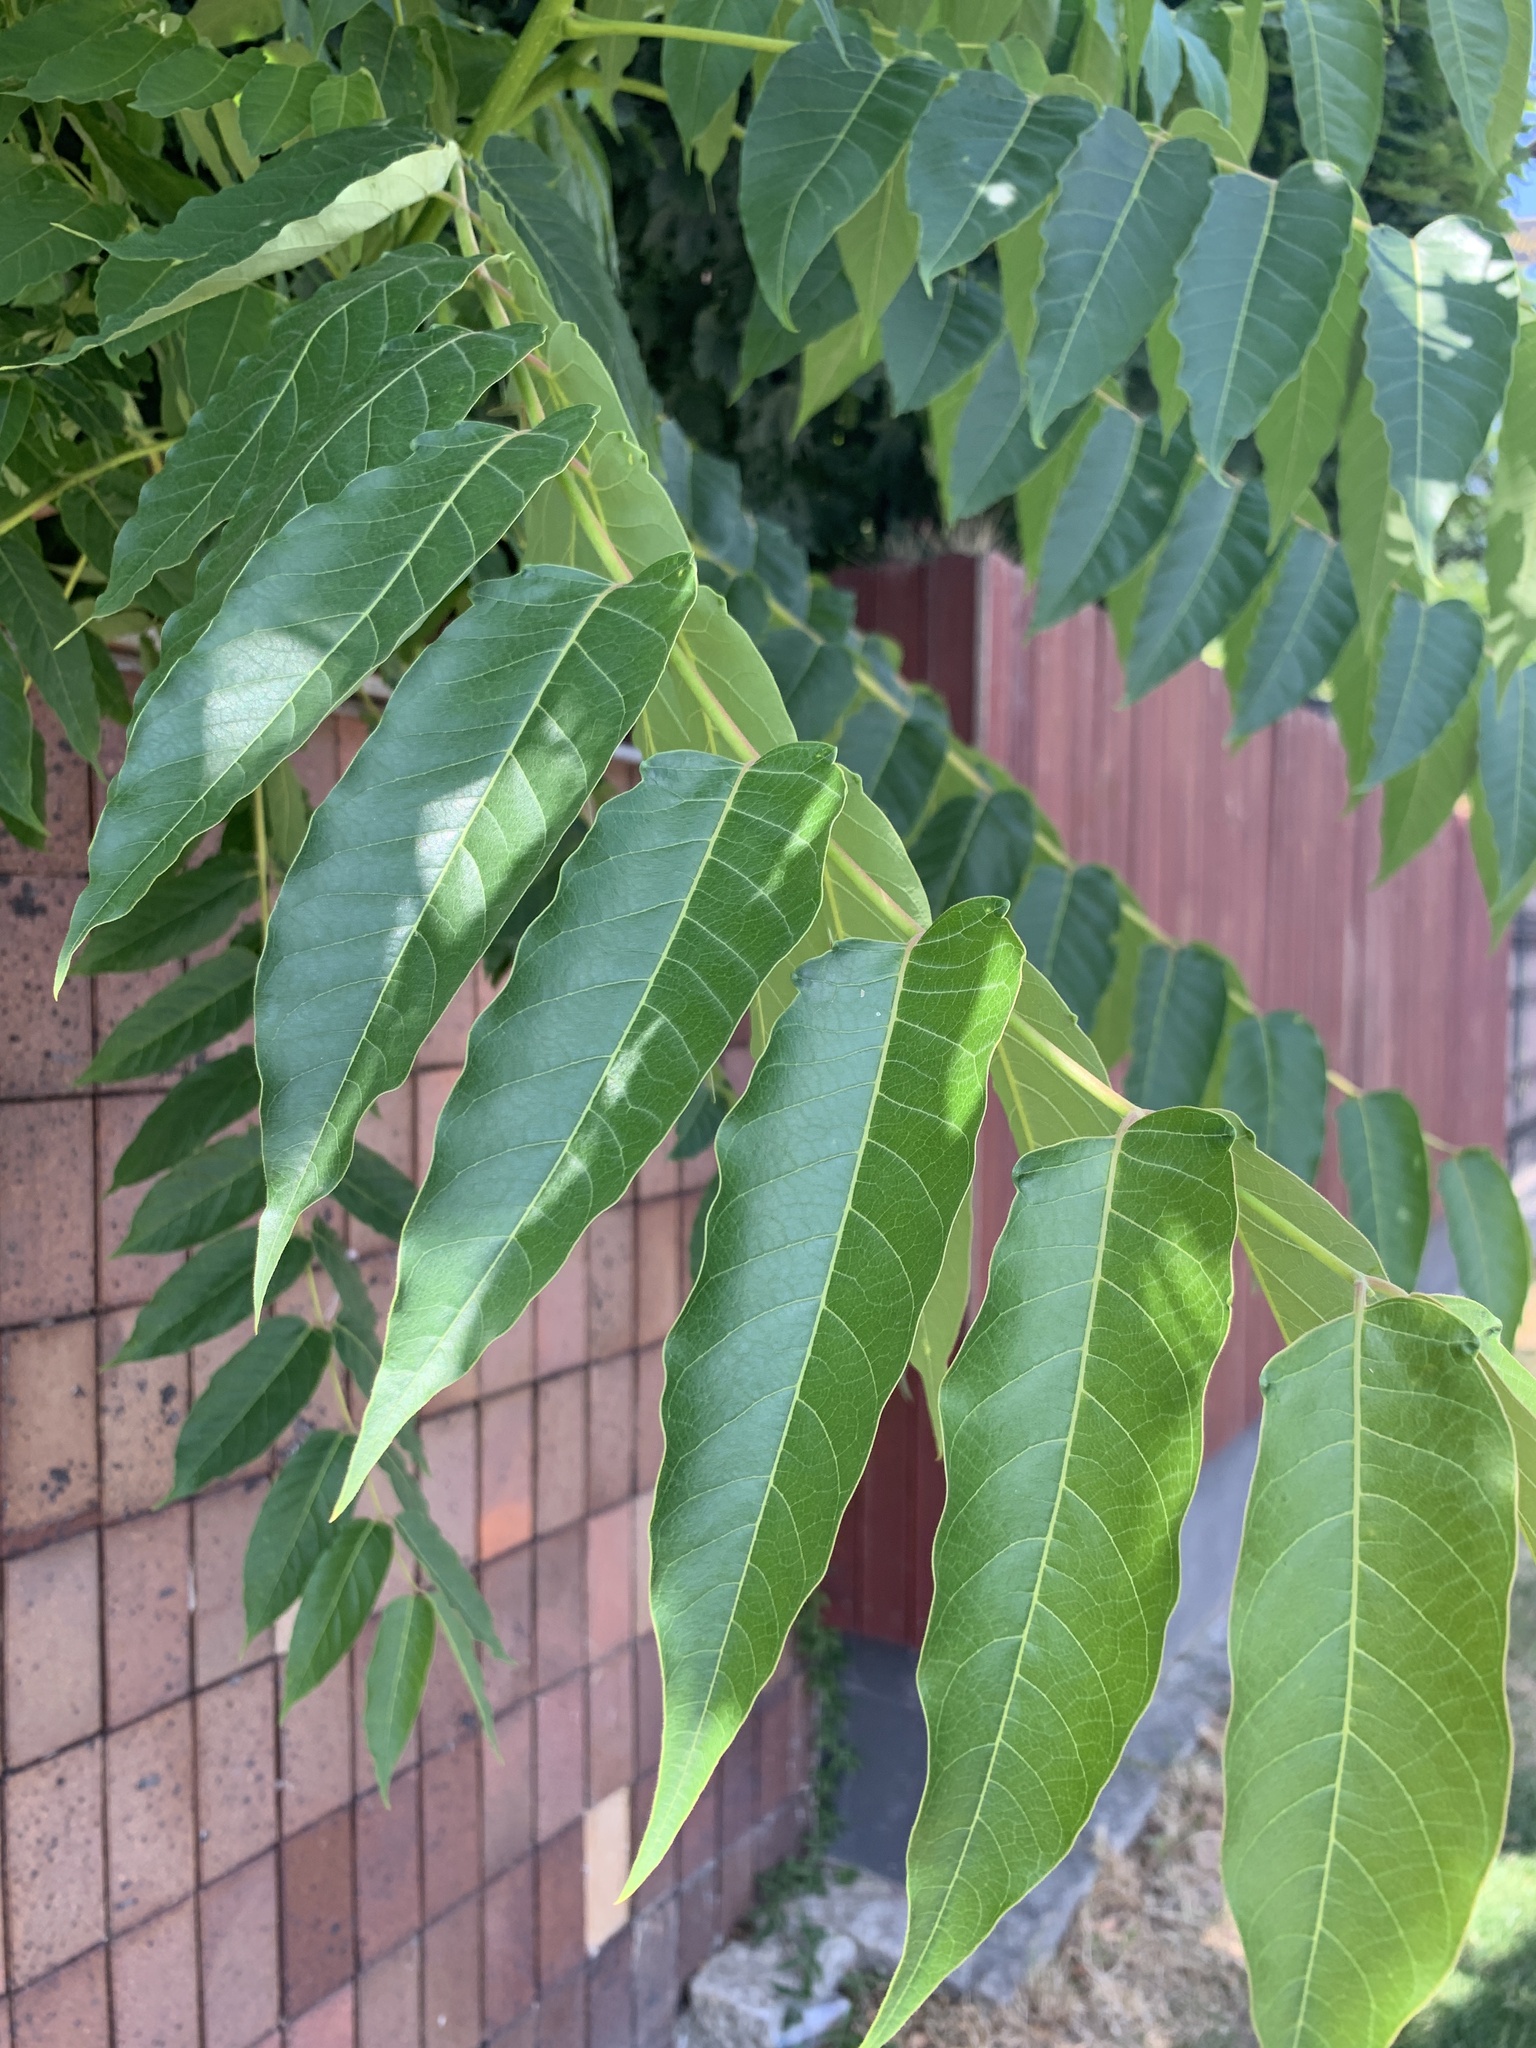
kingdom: Plantae
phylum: Tracheophyta
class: Magnoliopsida
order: Sapindales
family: Simaroubaceae
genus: Ailanthus
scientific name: Ailanthus altissima
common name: Tree-of-heaven
